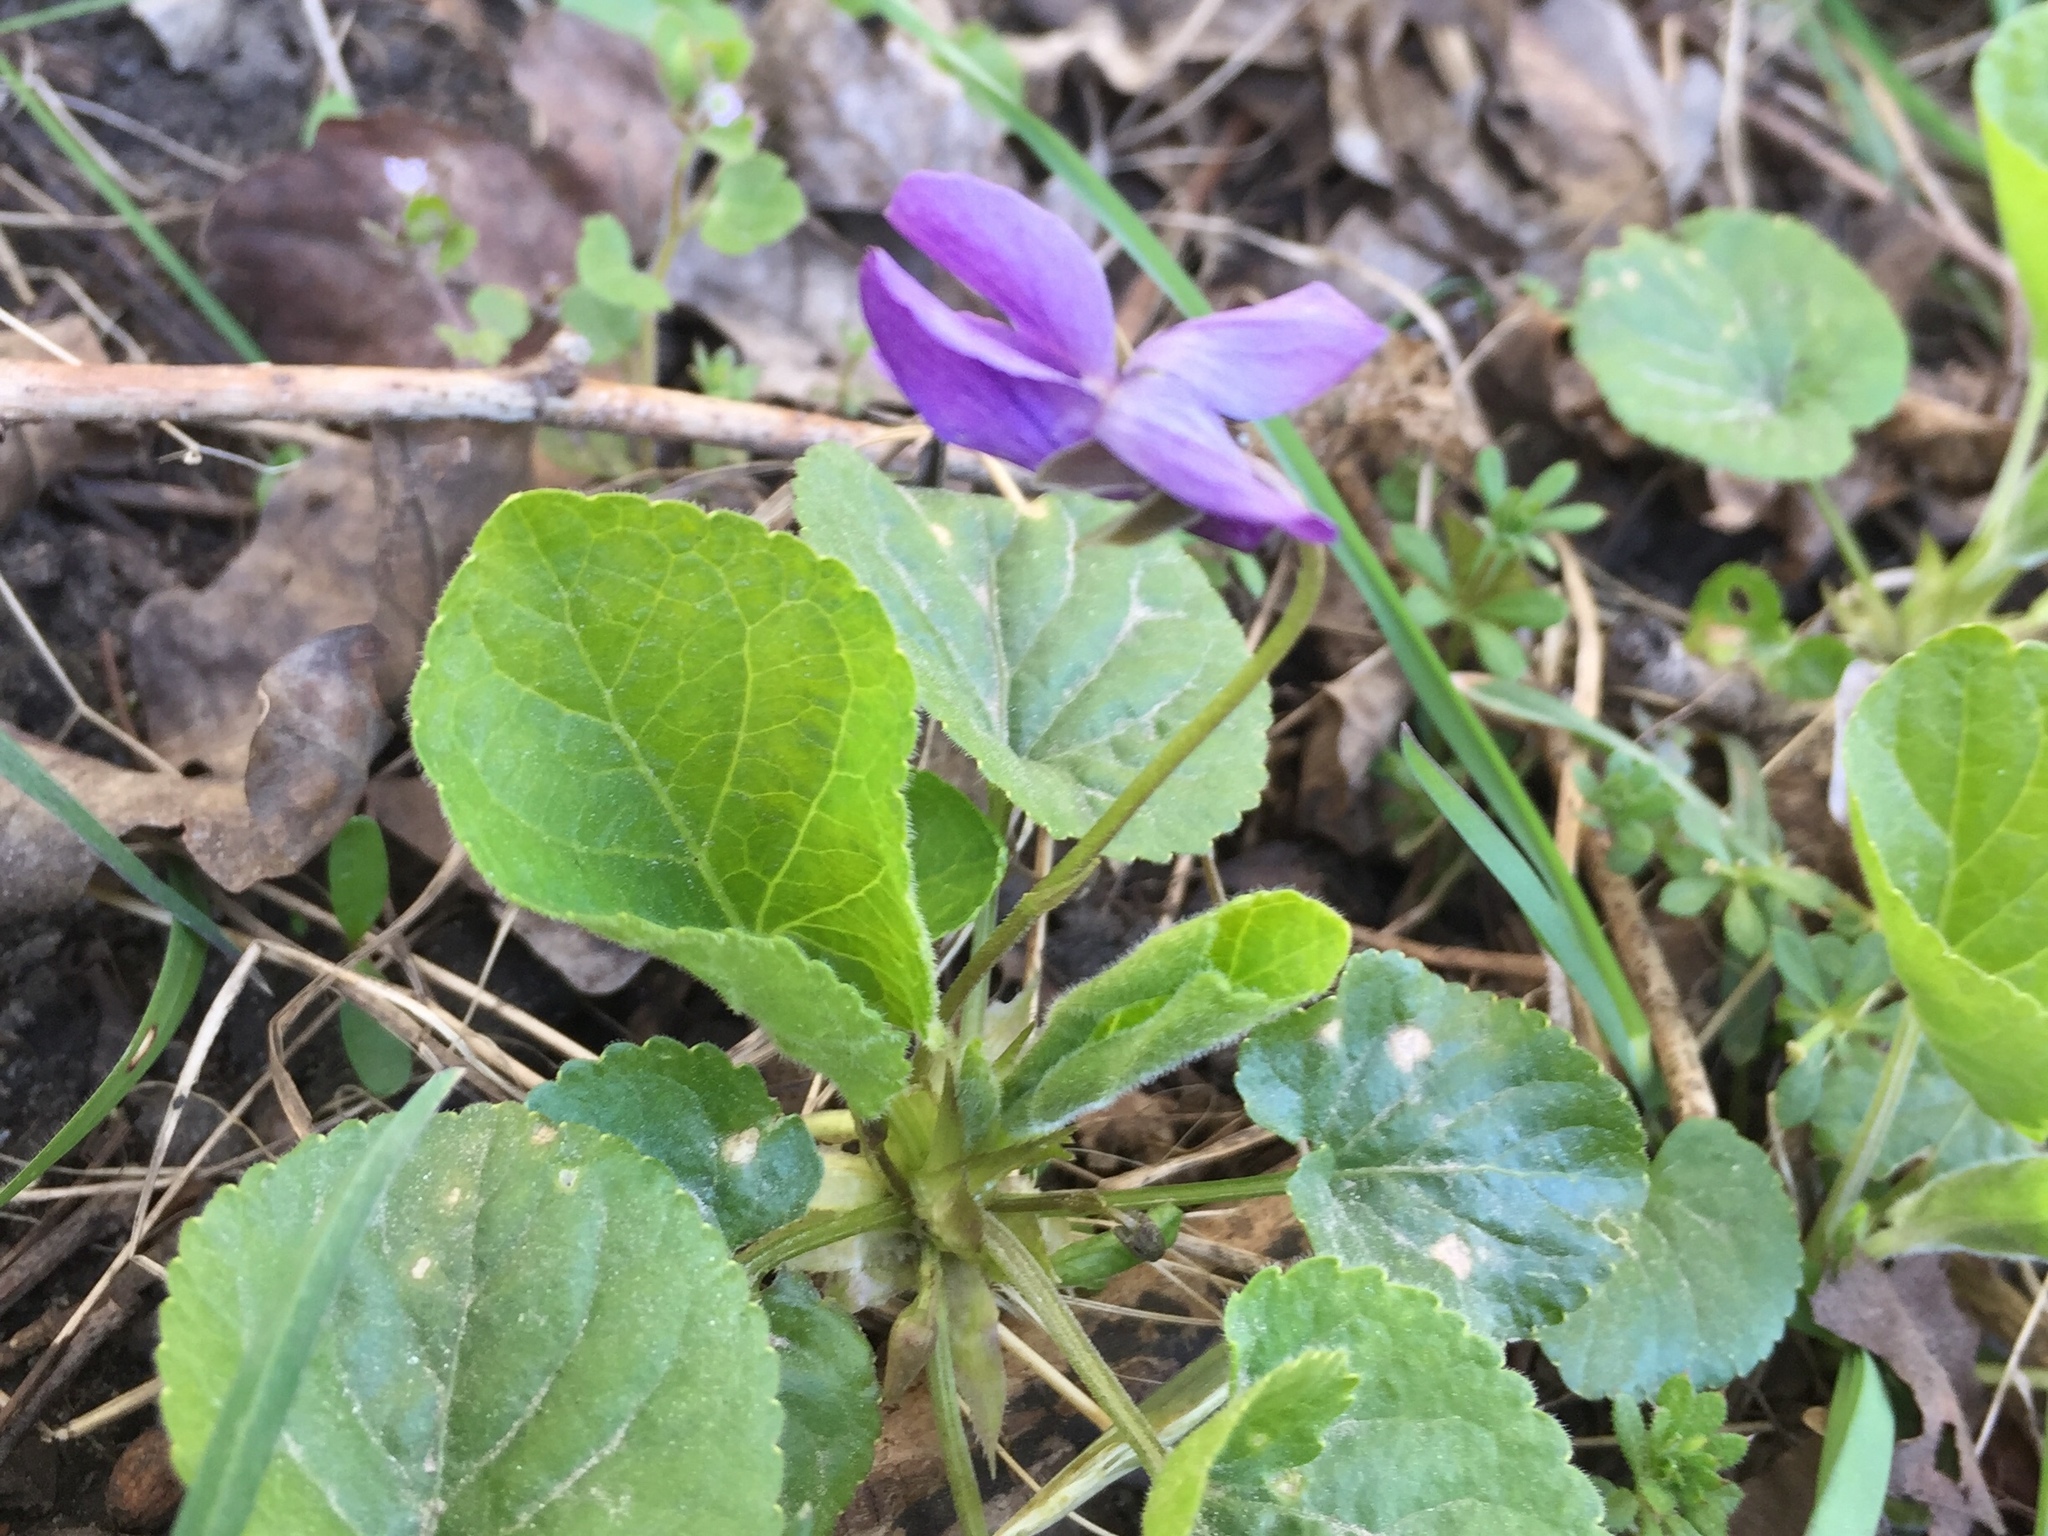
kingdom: Plantae
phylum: Tracheophyta
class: Magnoliopsida
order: Malpighiales
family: Violaceae
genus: Viola
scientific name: Viola reichenbachiana
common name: Early dog-violet
